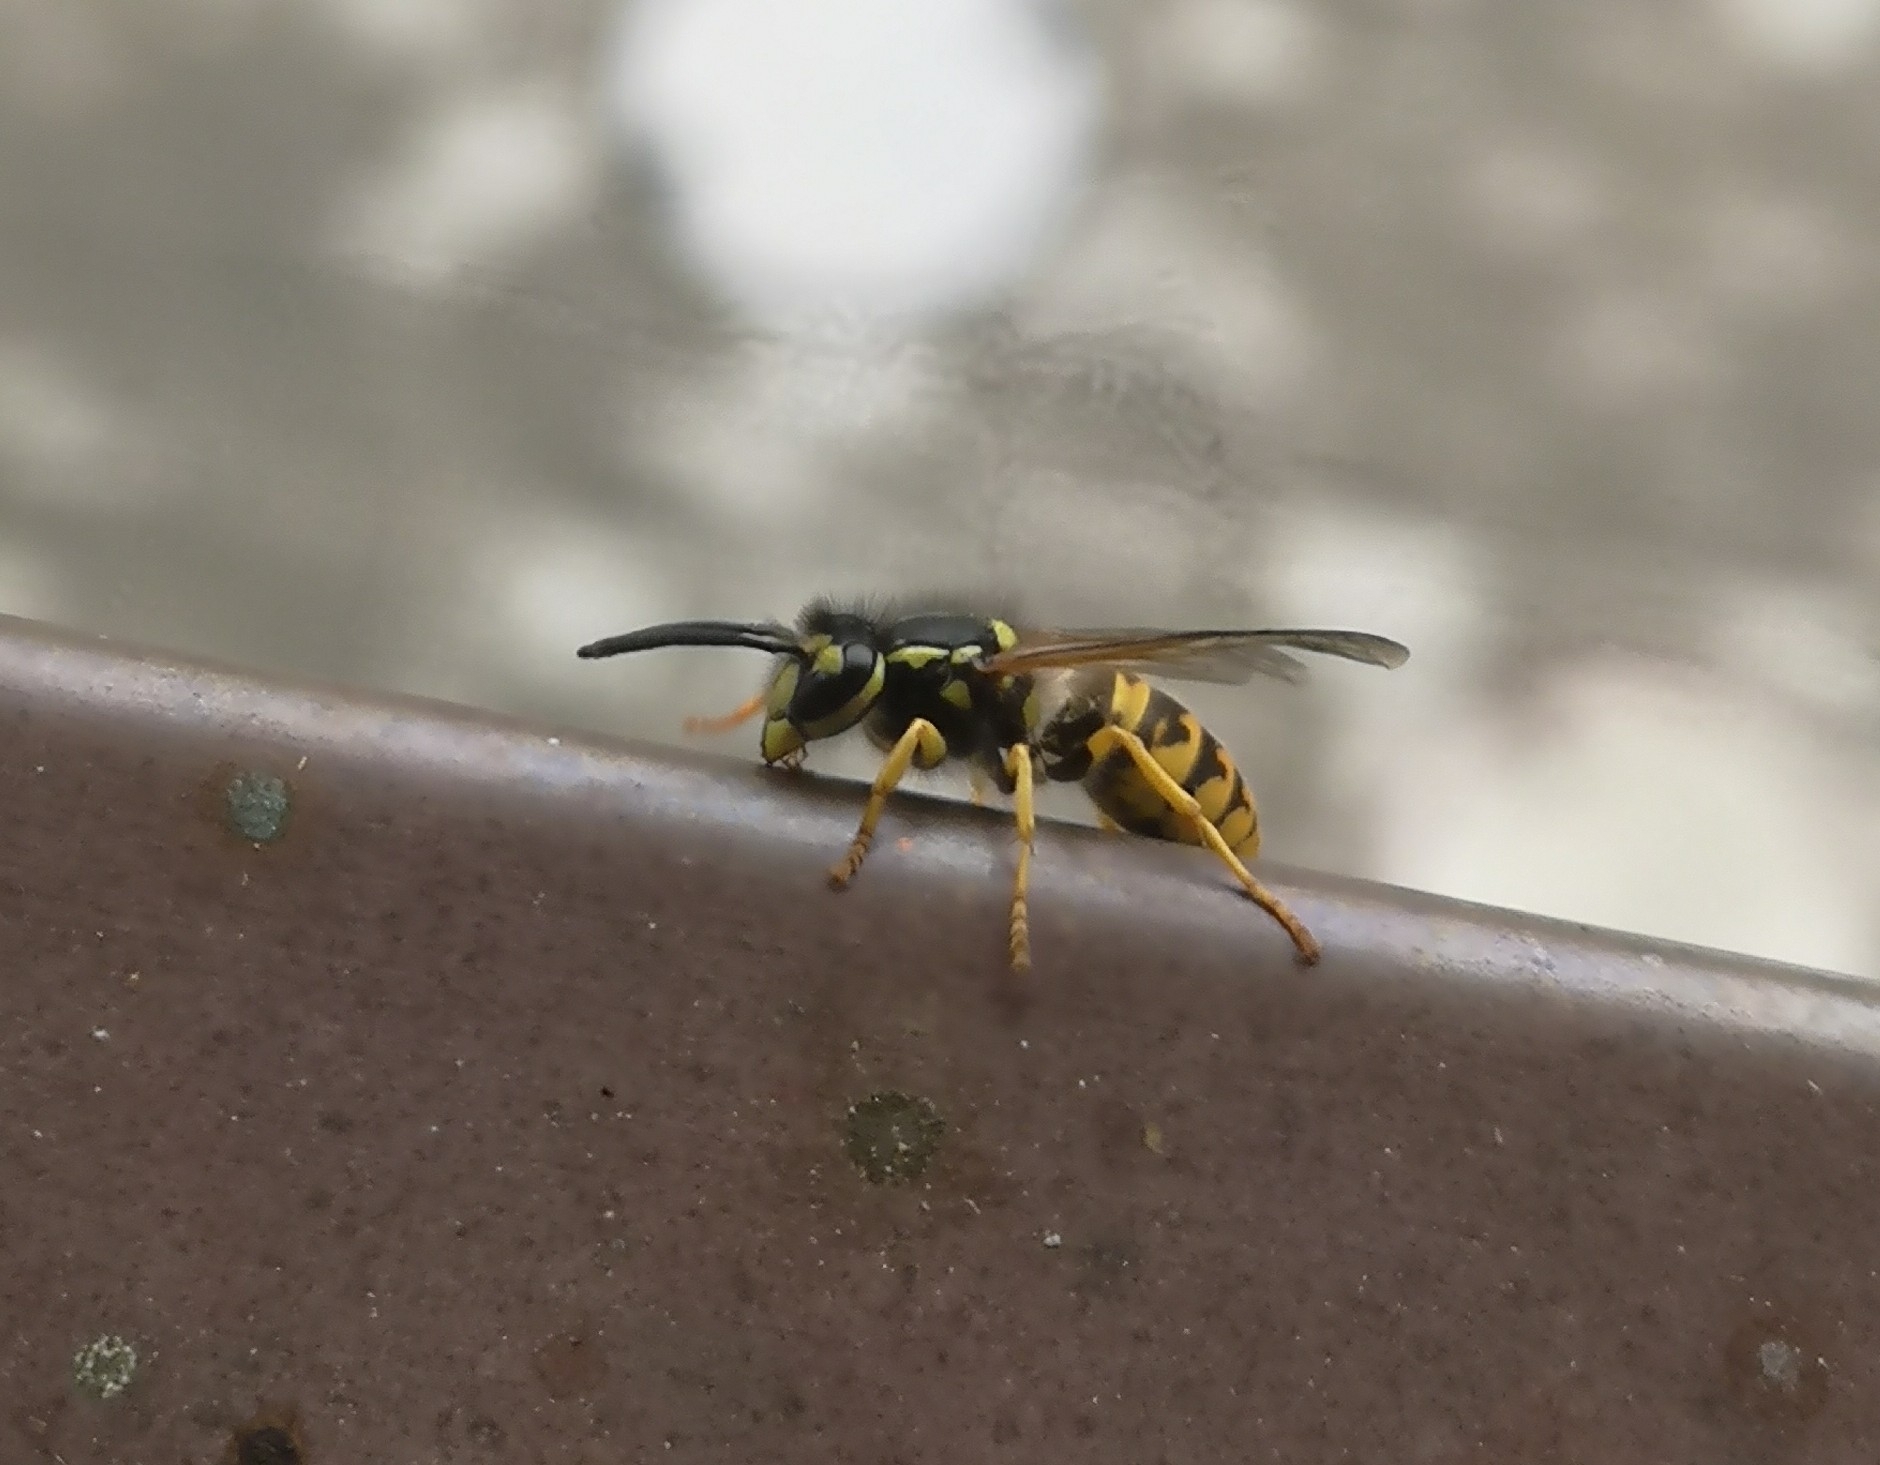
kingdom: Animalia
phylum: Arthropoda
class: Insecta
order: Hymenoptera
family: Vespidae
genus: Vespula
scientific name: Vespula germanica
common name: German wasp
